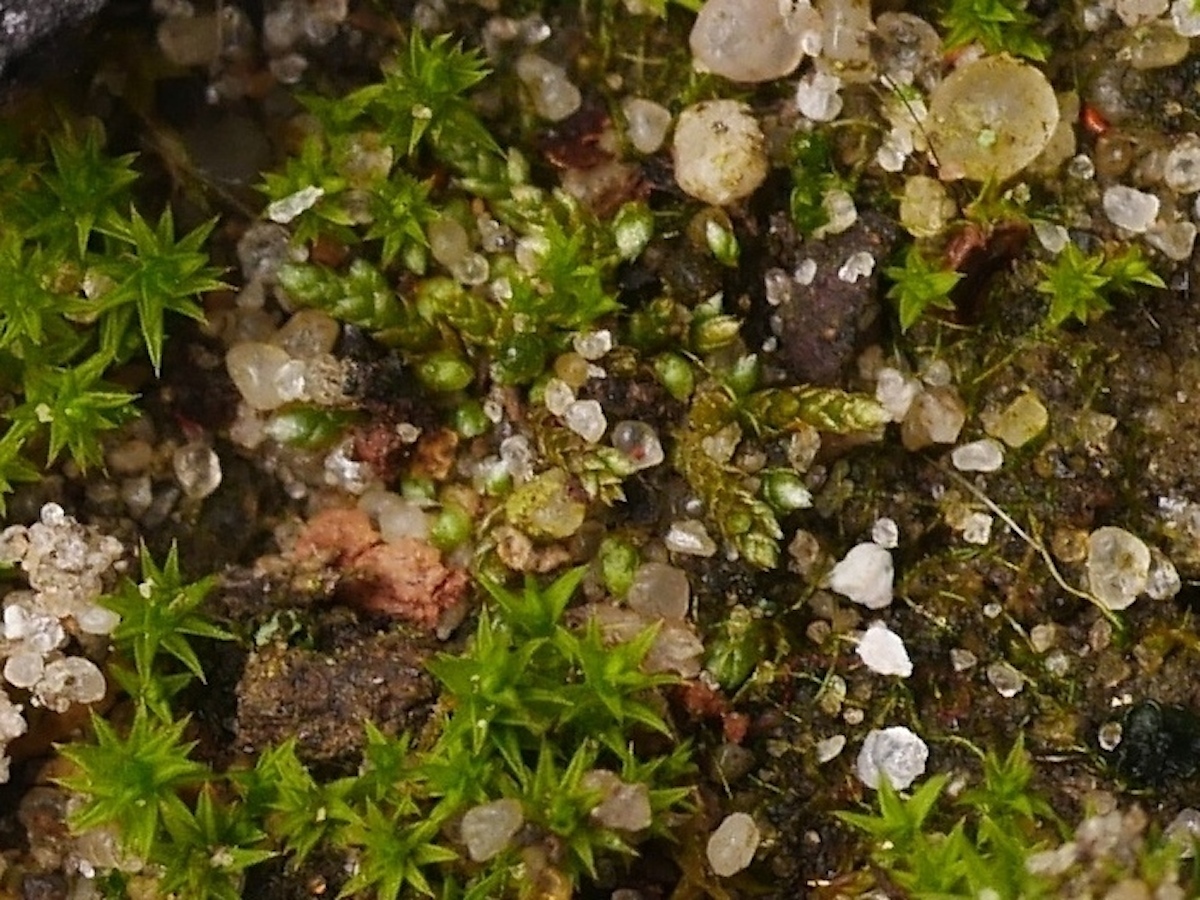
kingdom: Plantae
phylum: Bryophyta
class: Bryopsida
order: Bryales
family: Bryaceae
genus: Bryum
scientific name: Bryum argenteum
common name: Silver-moss
